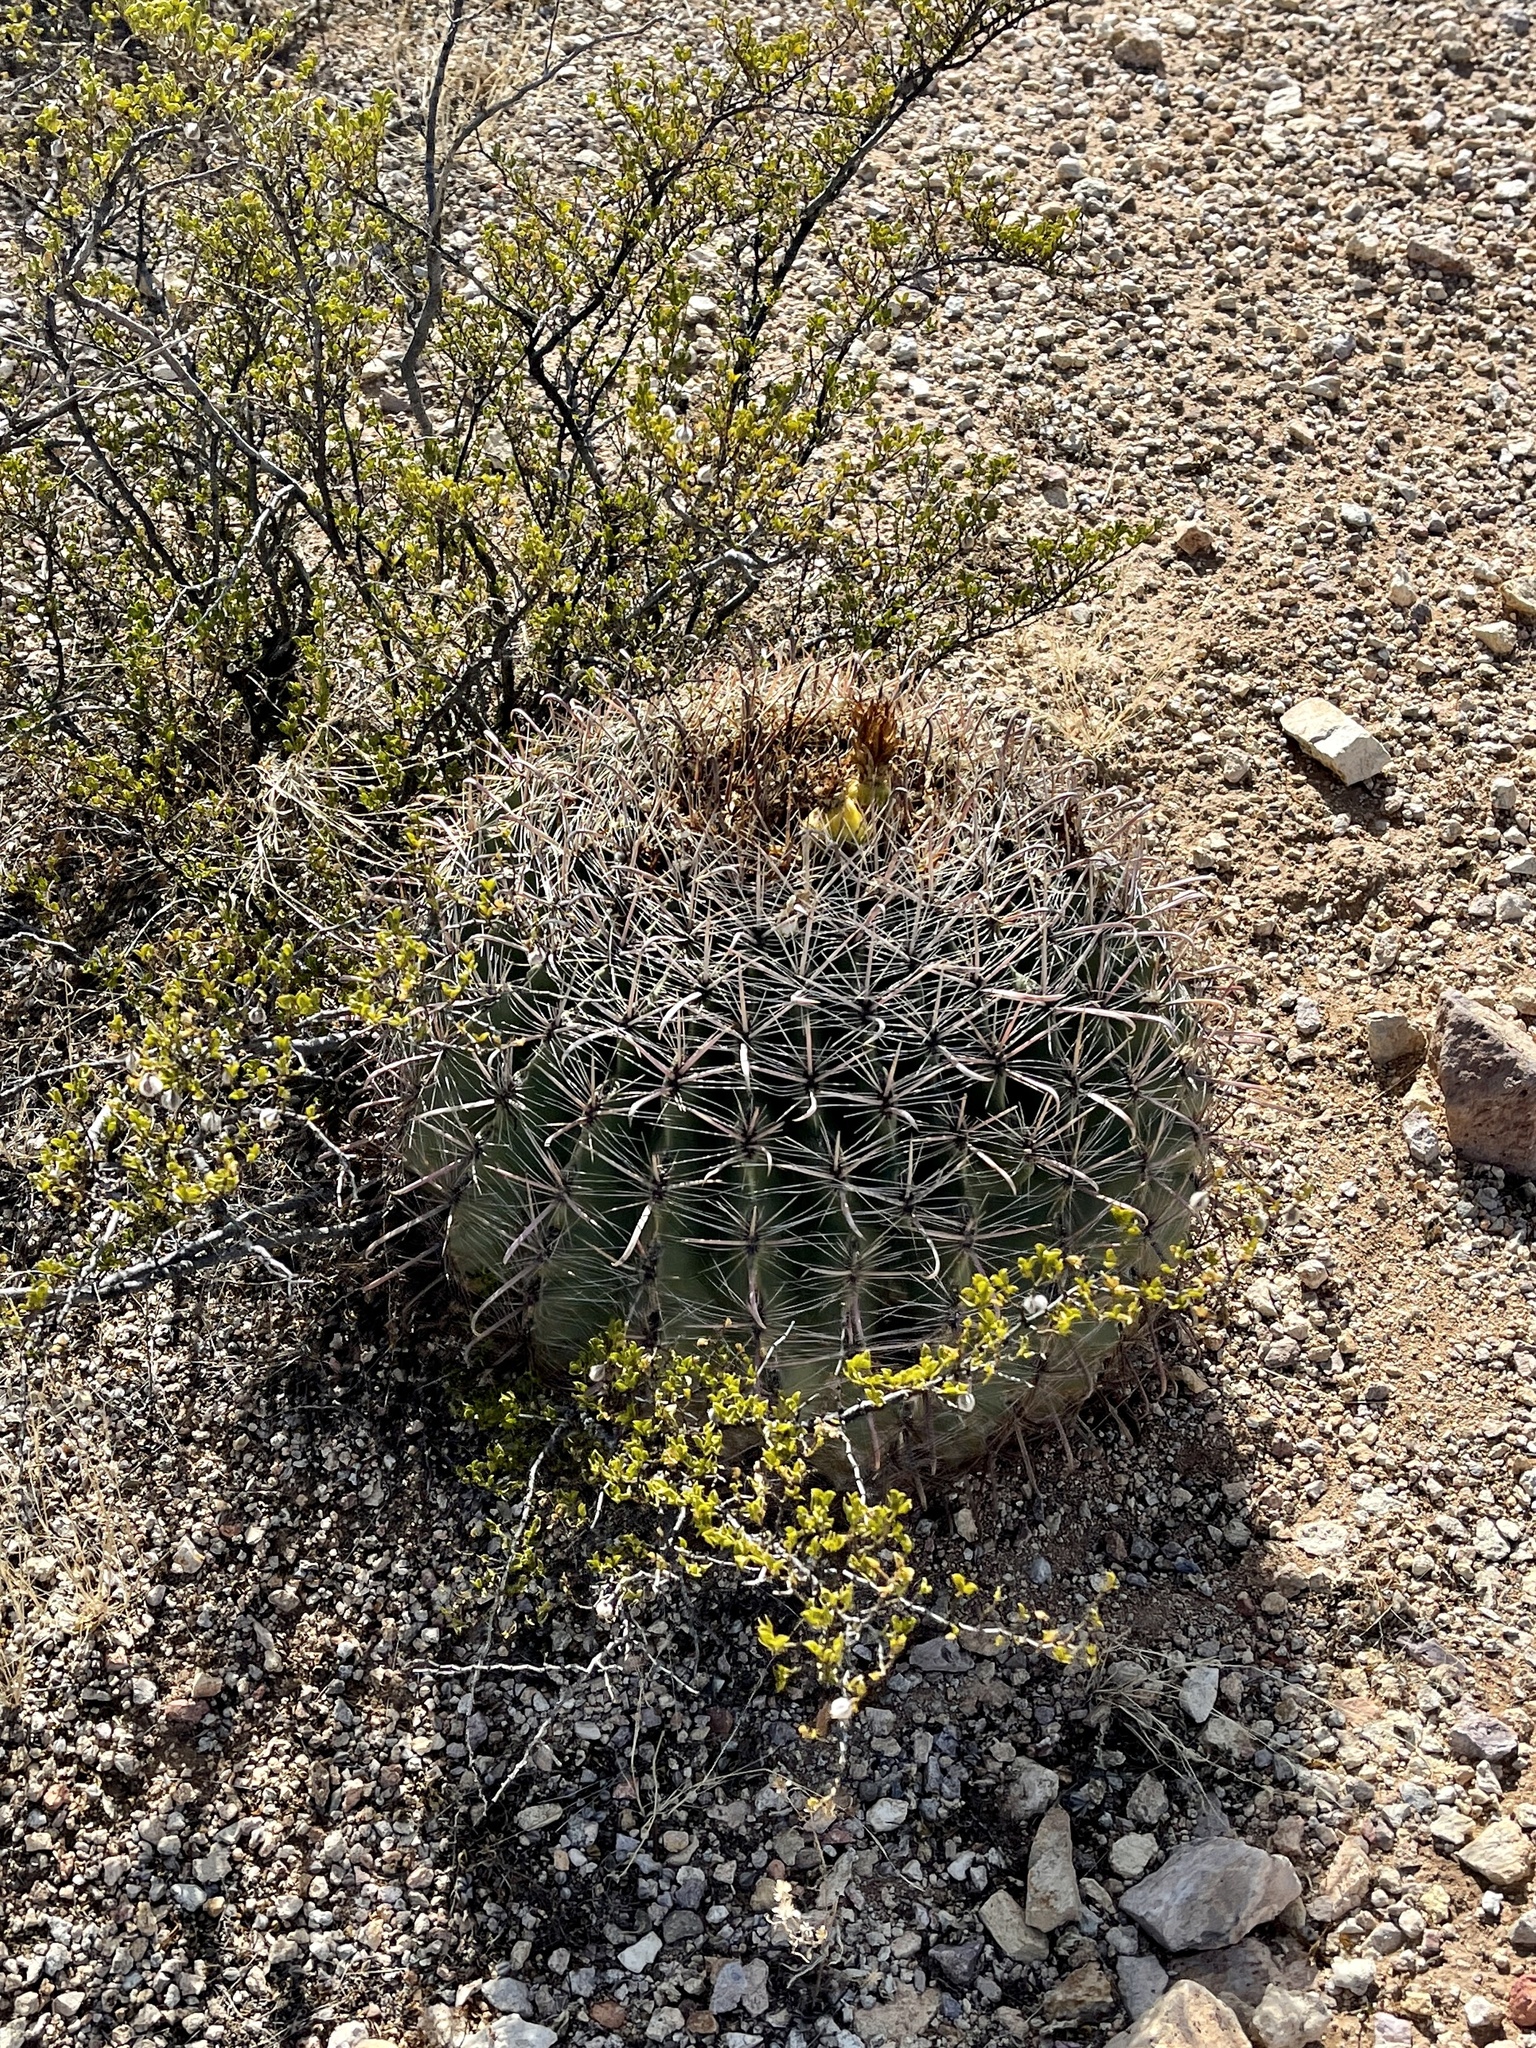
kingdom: Plantae
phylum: Tracheophyta
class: Magnoliopsida
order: Caryophyllales
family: Cactaceae
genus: Ferocactus
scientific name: Ferocactus wislizeni
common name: Candy barrel cactus
